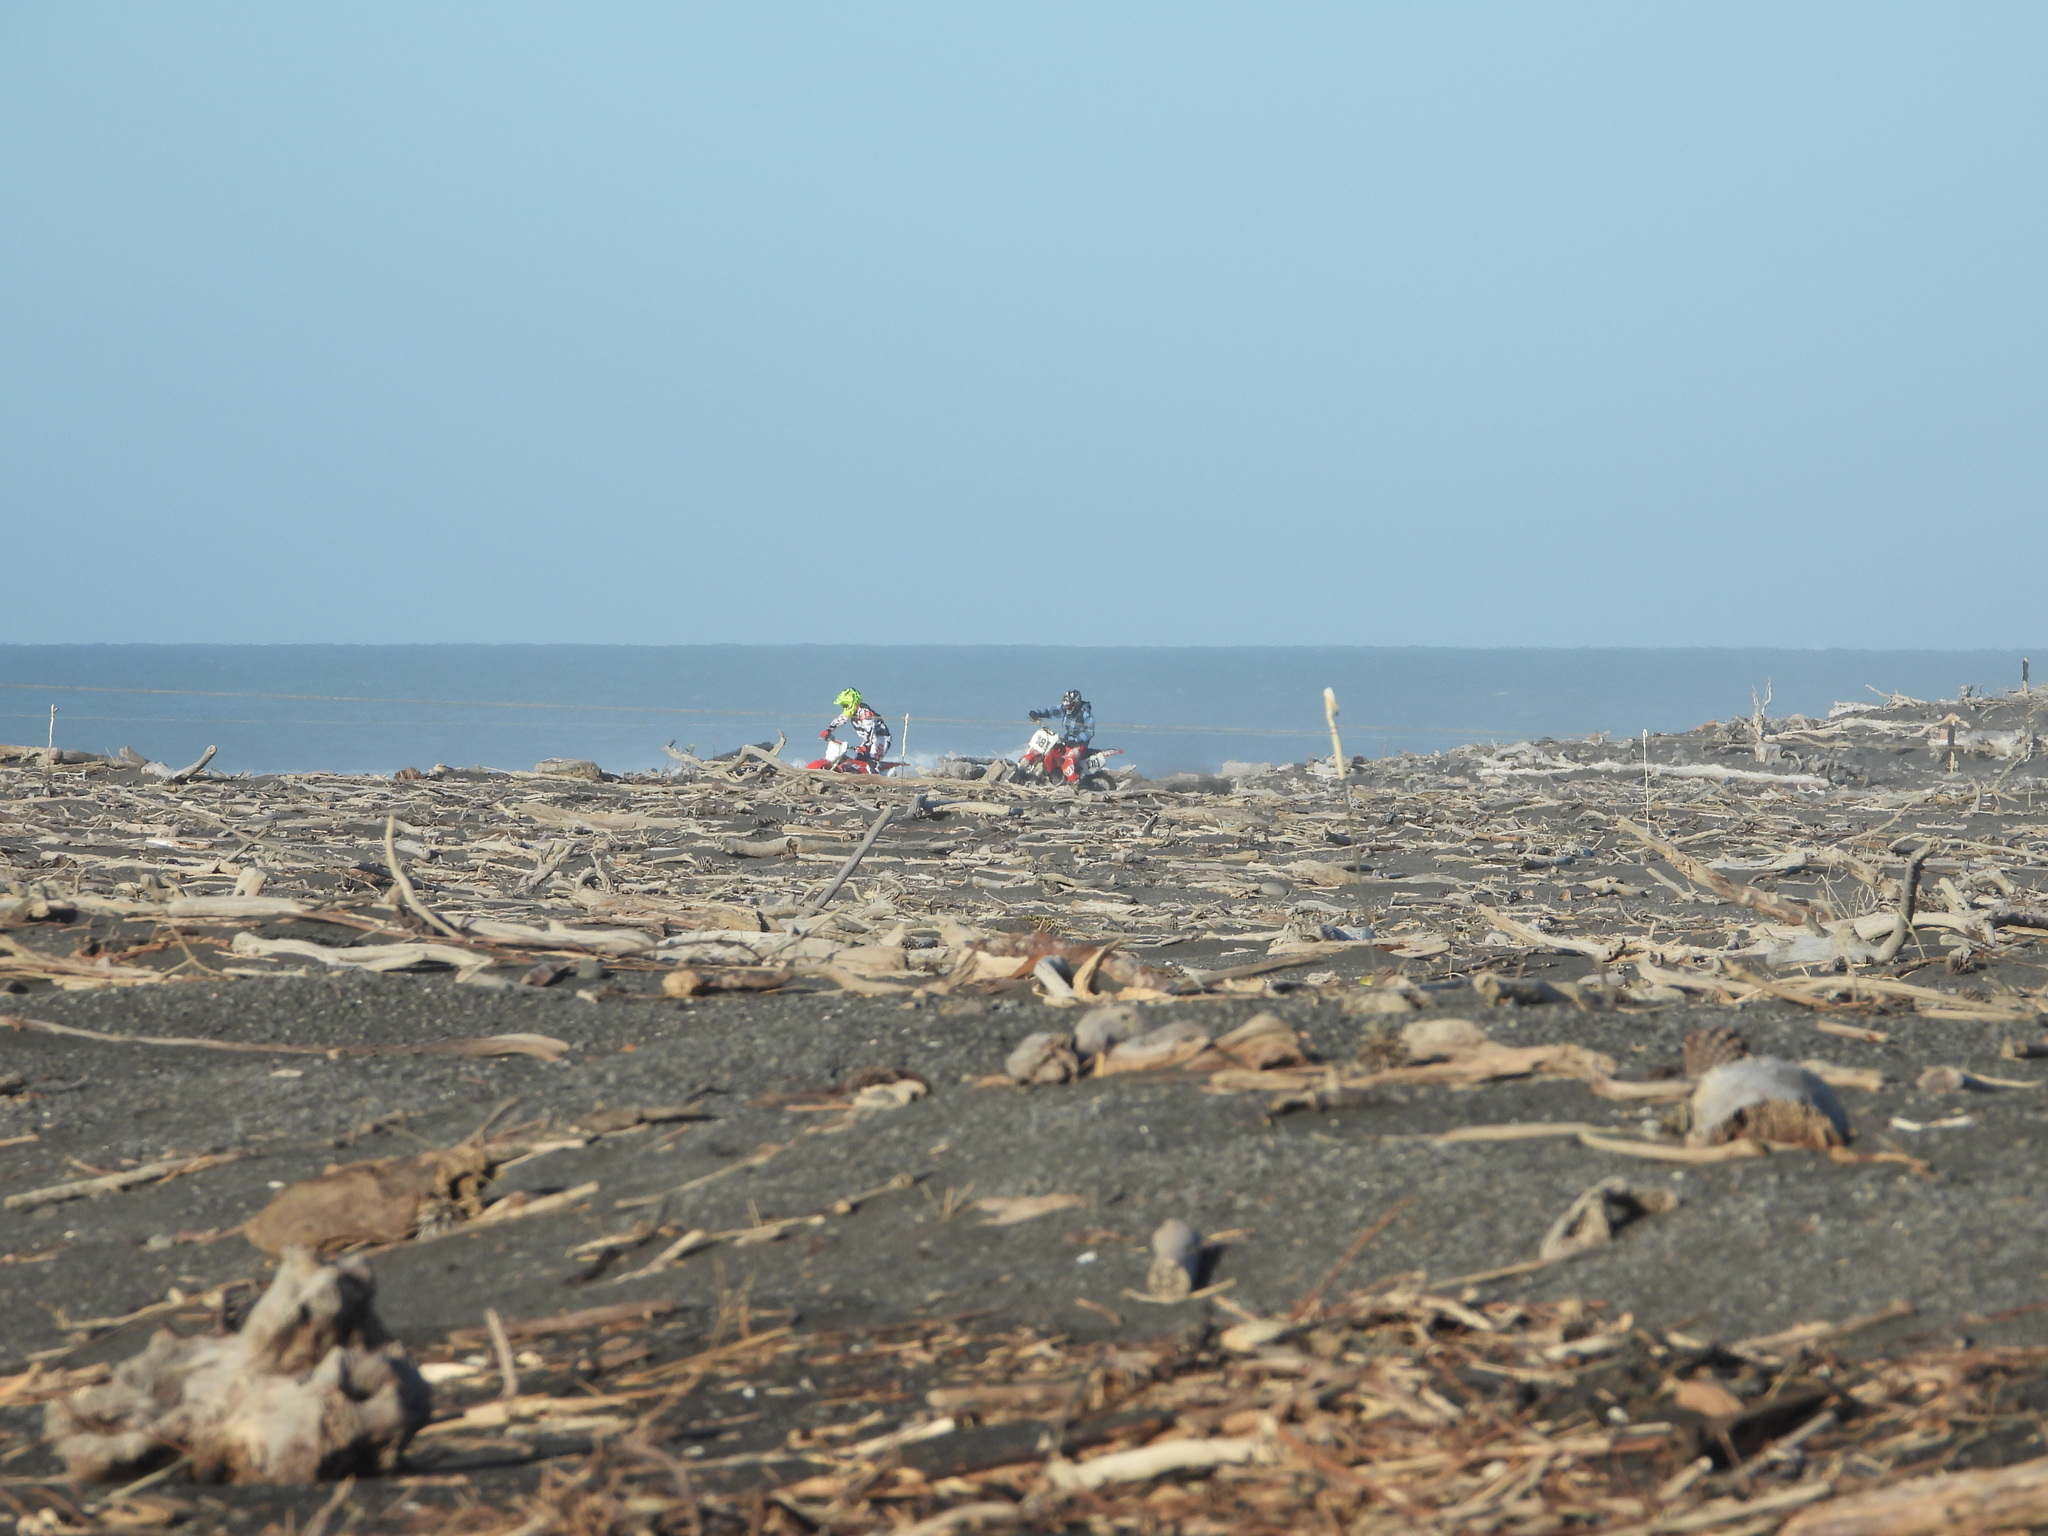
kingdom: Animalia
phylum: Chordata
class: Aves
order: Charadriiformes
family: Charadriidae
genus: Anarhynchus
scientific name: Anarhynchus
